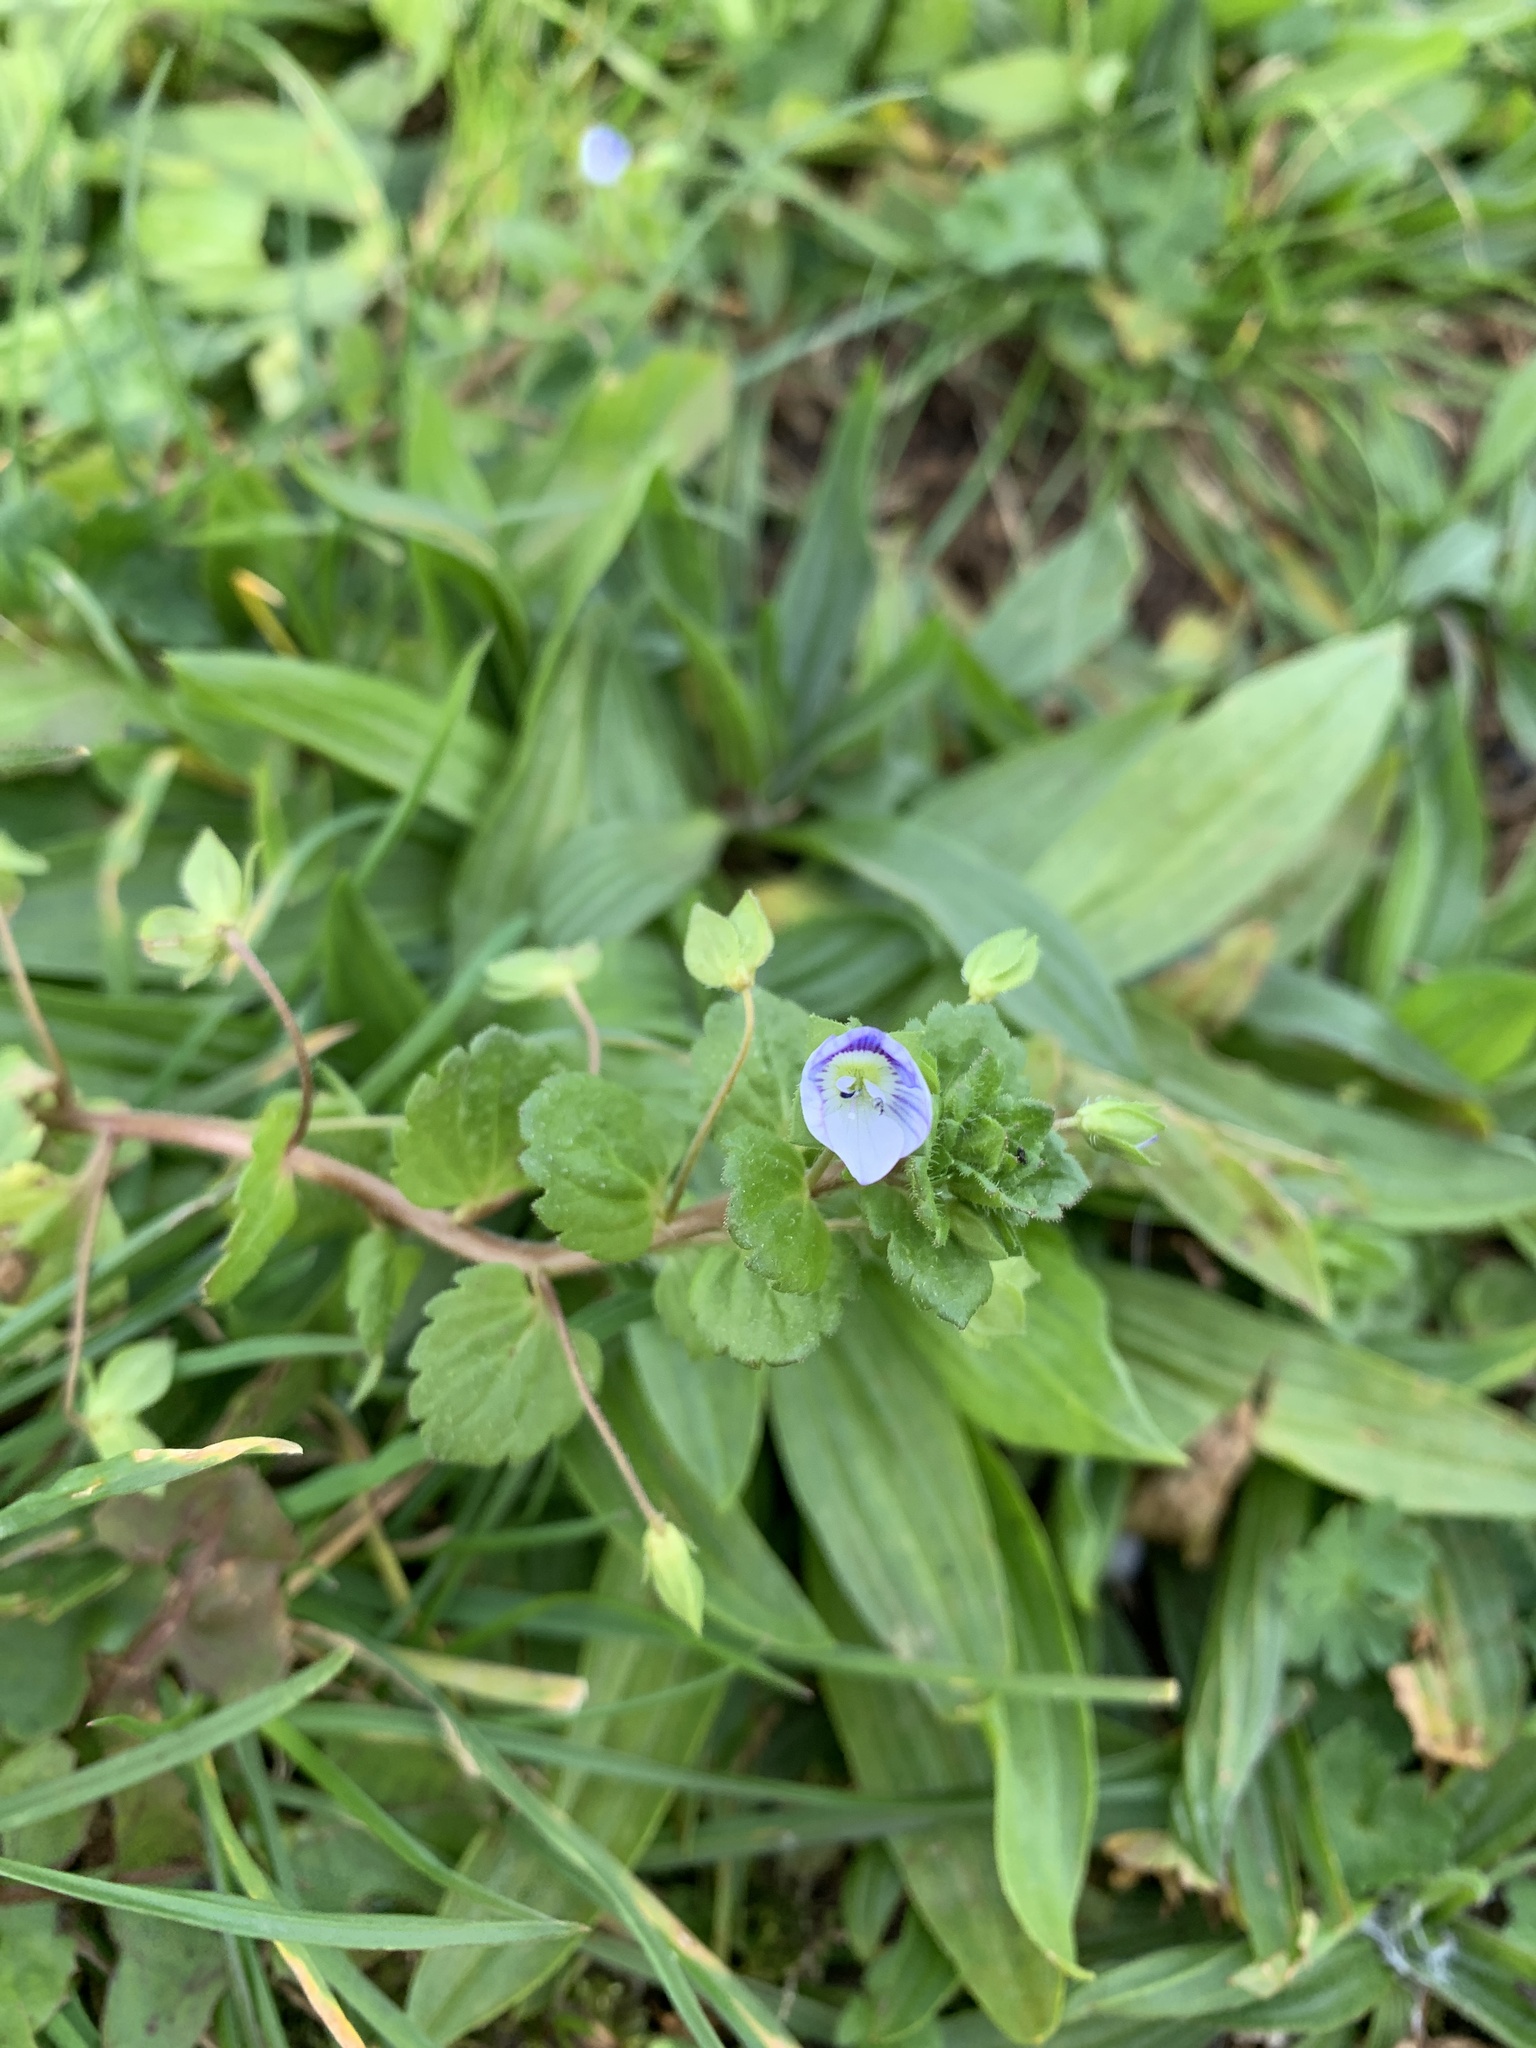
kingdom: Plantae
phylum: Tracheophyta
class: Magnoliopsida
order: Lamiales
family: Plantaginaceae
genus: Veronica
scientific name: Veronica persica
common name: Common field-speedwell
